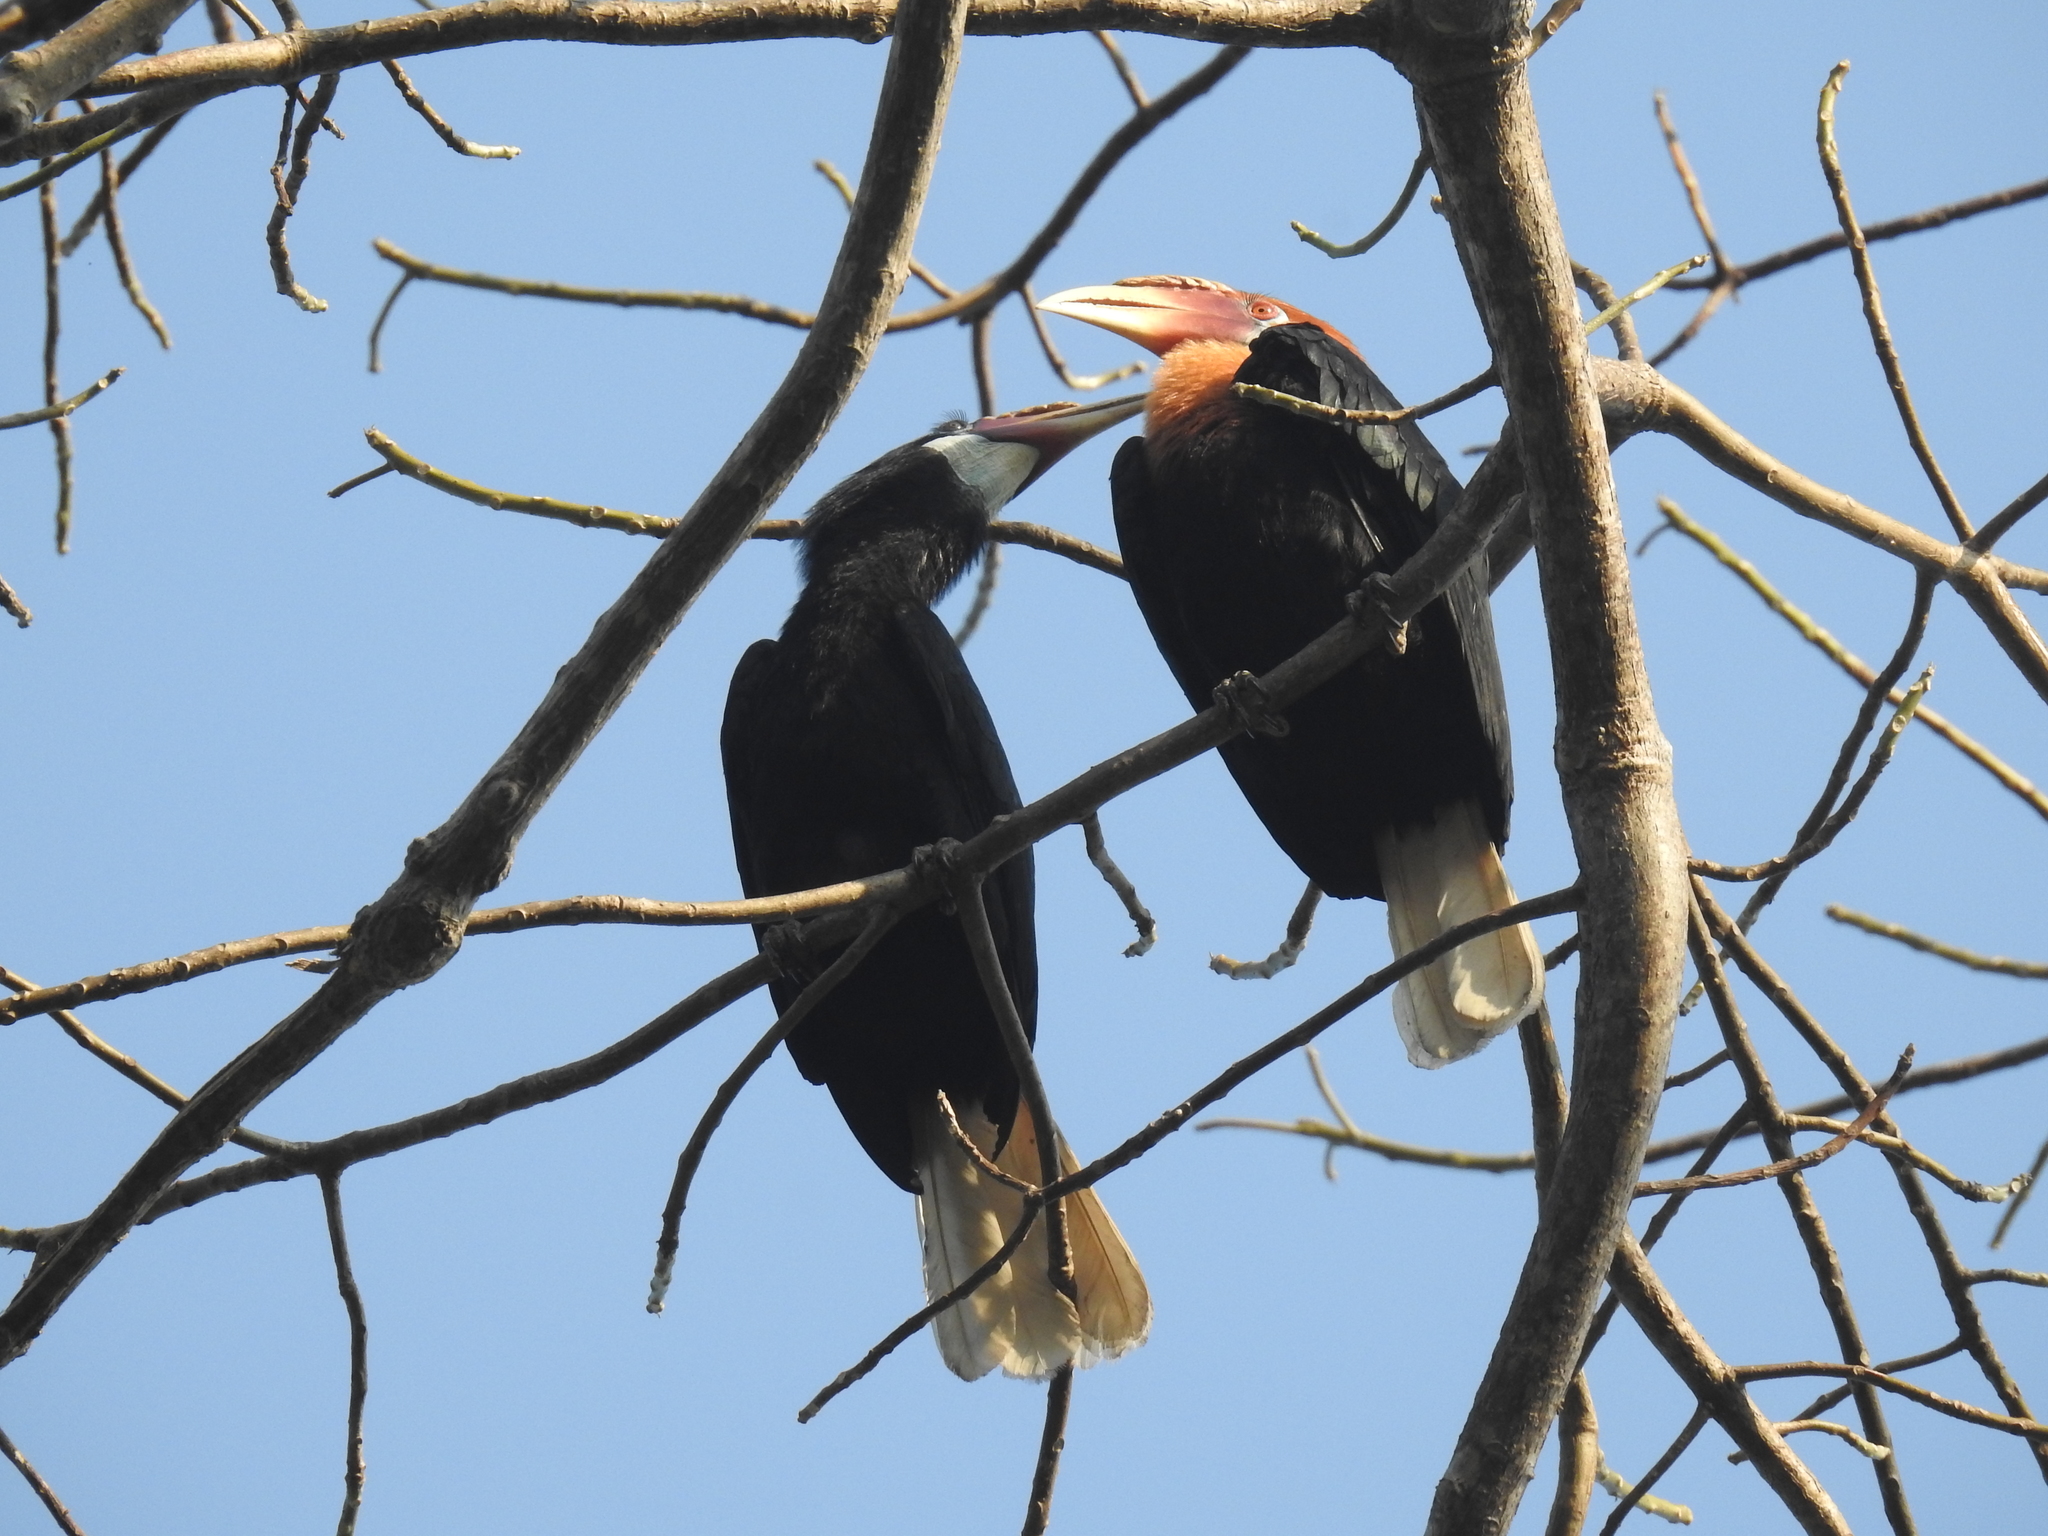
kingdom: Animalia
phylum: Chordata
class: Aves
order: Bucerotiformes
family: Bucerotidae
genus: Rhyticeros
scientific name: Rhyticeros narcondami
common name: Narcondam hornbill
